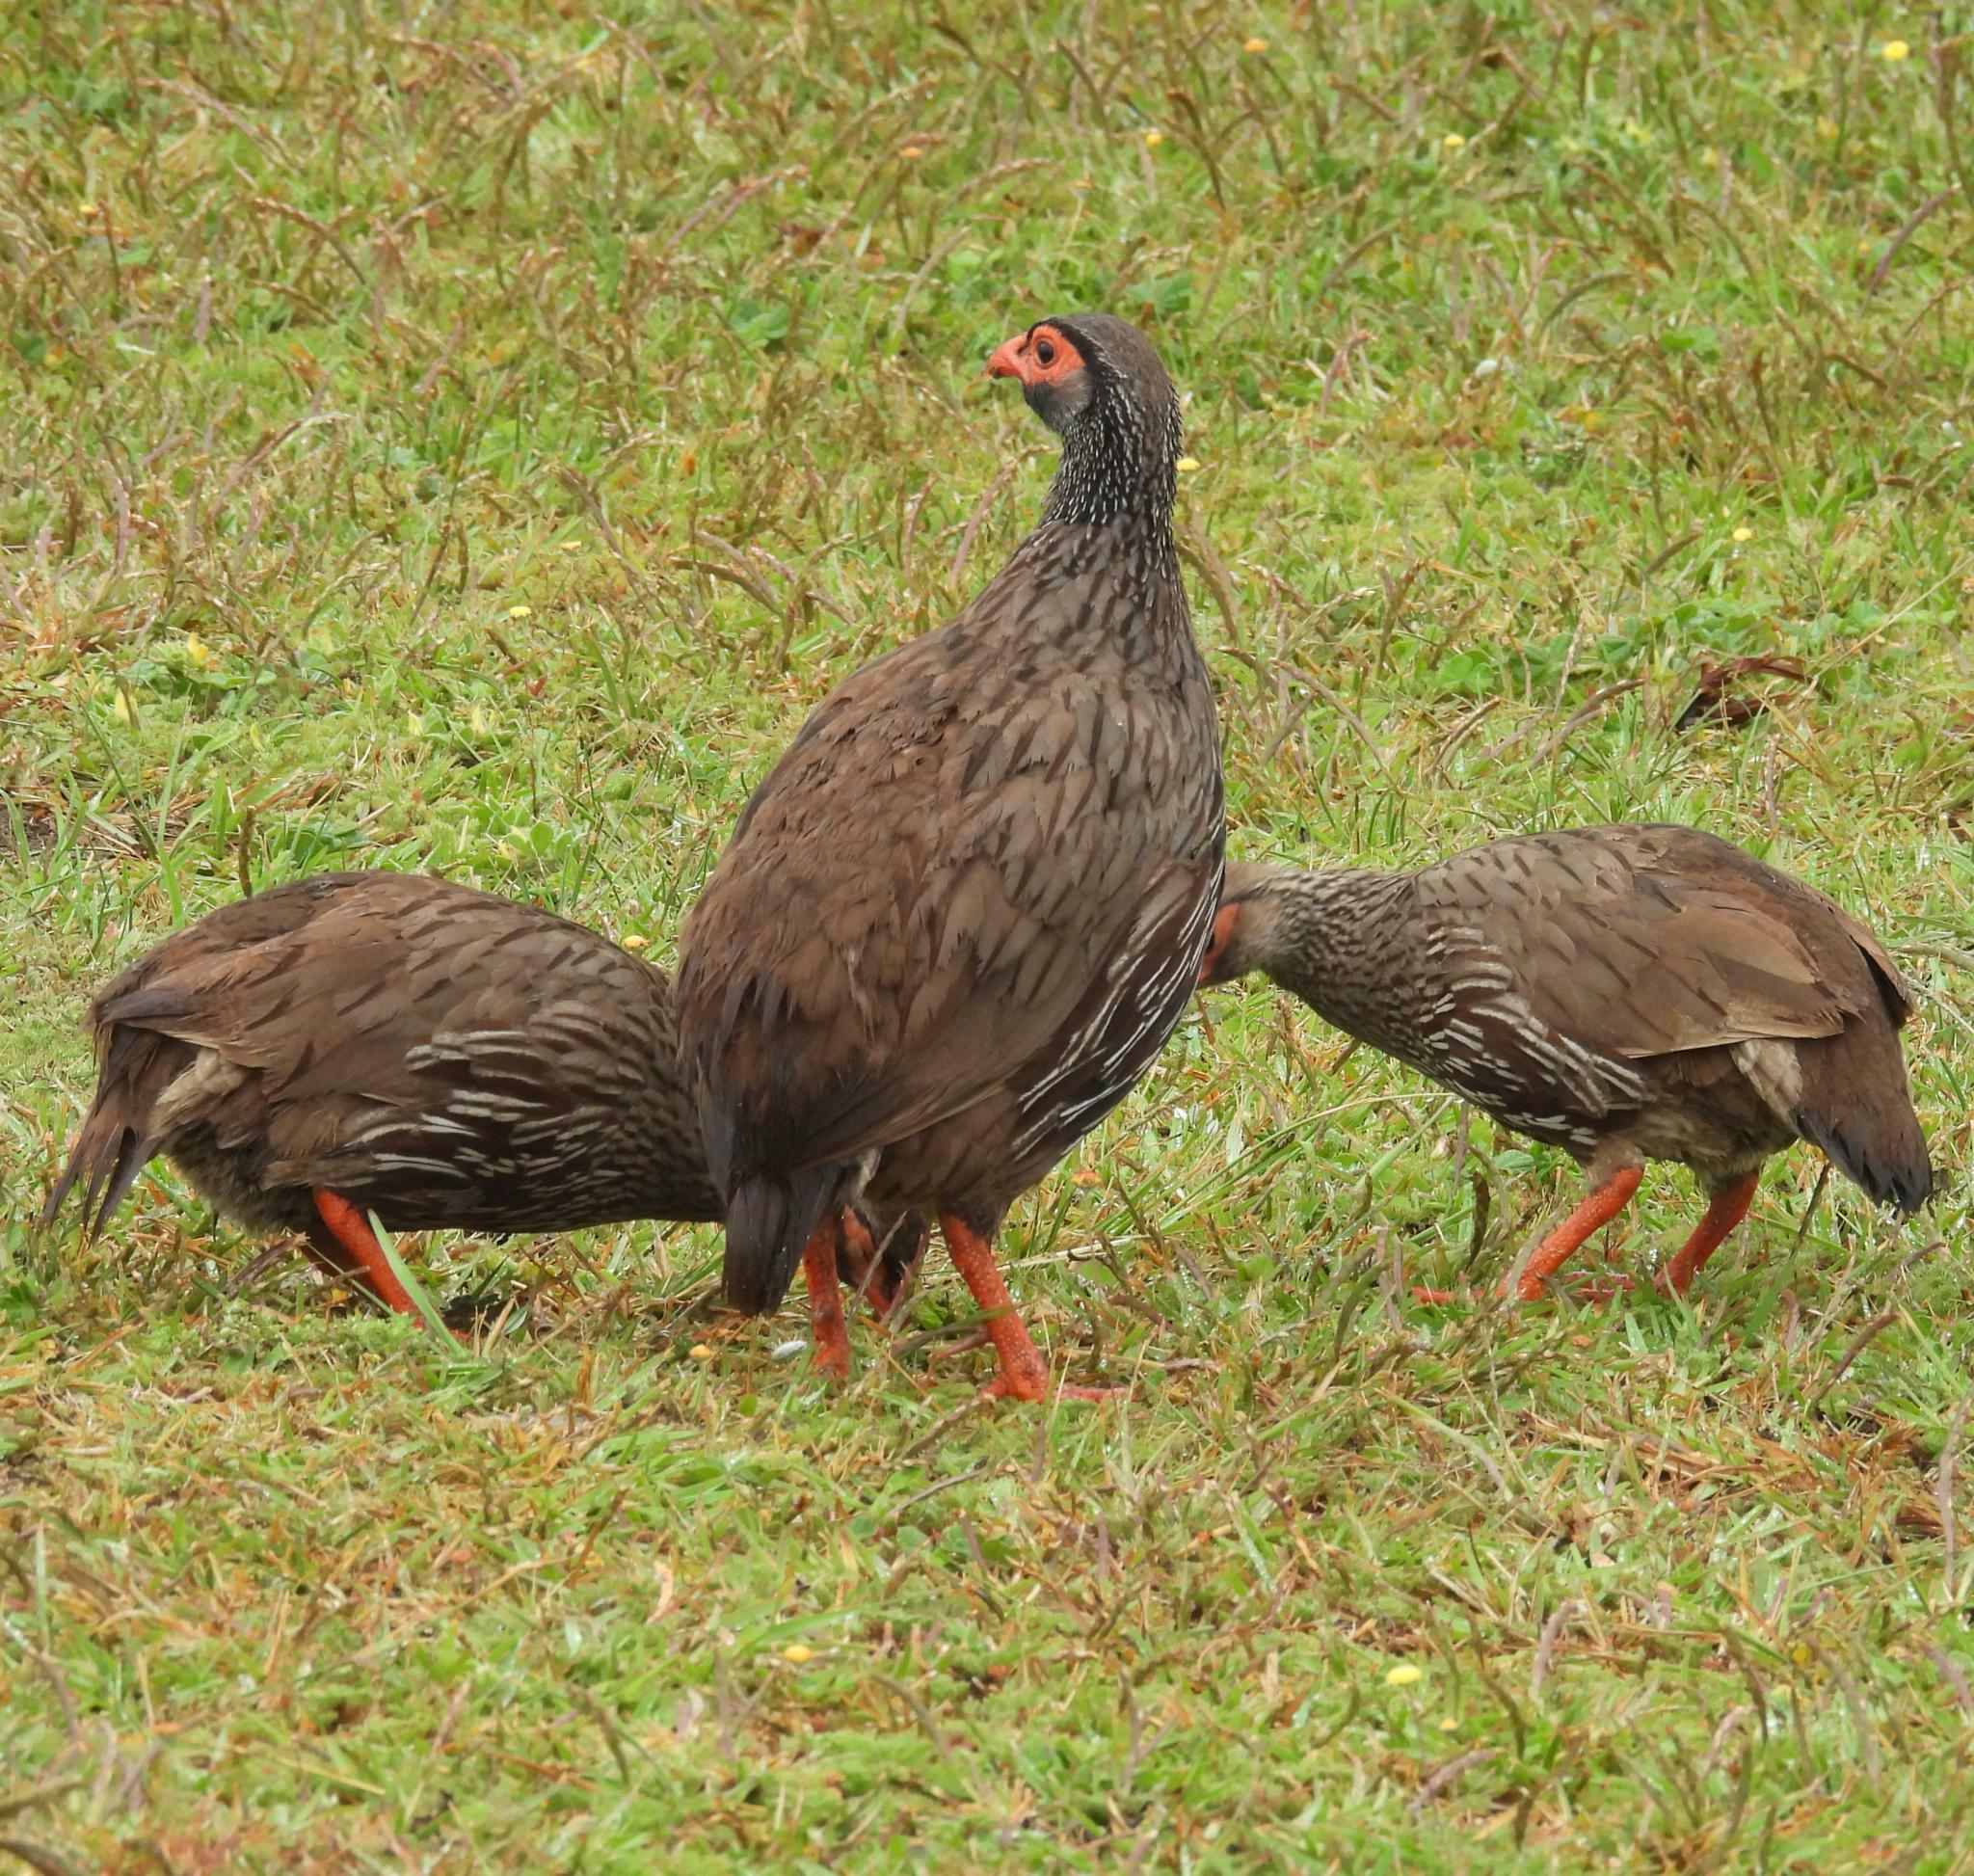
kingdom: Animalia
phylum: Chordata
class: Aves
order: Galliformes
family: Phasianidae
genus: Pternistis
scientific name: Pternistis afer
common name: Red-necked spurfowl
